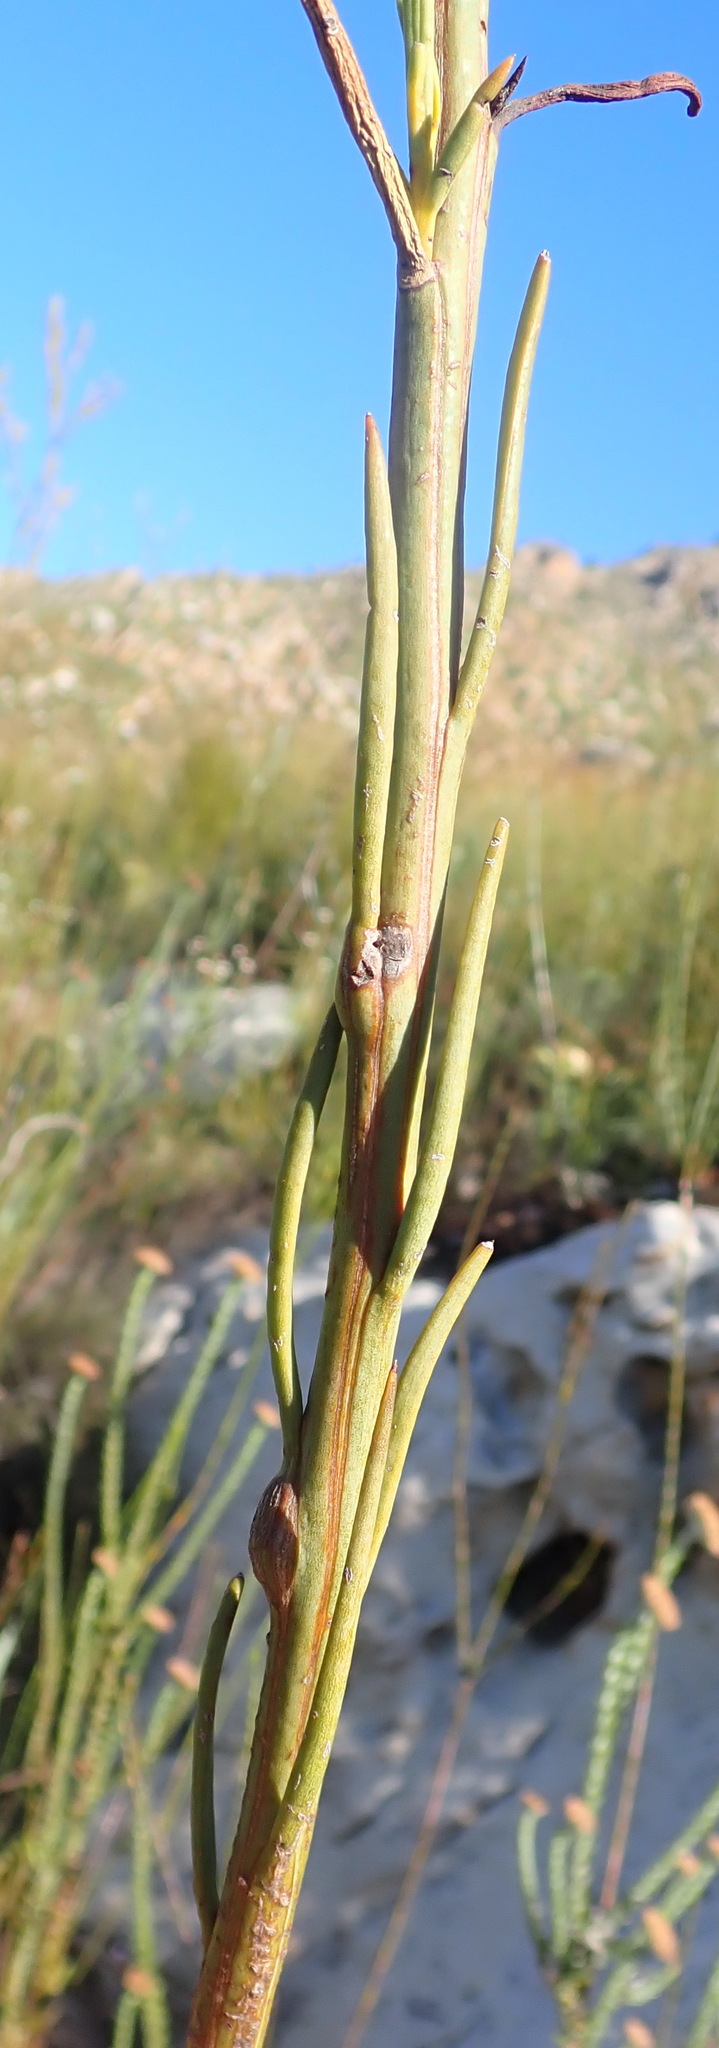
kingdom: Plantae
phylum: Tracheophyta
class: Magnoliopsida
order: Santalales
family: Thesiaceae
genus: Thesium
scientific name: Thesium strictum
